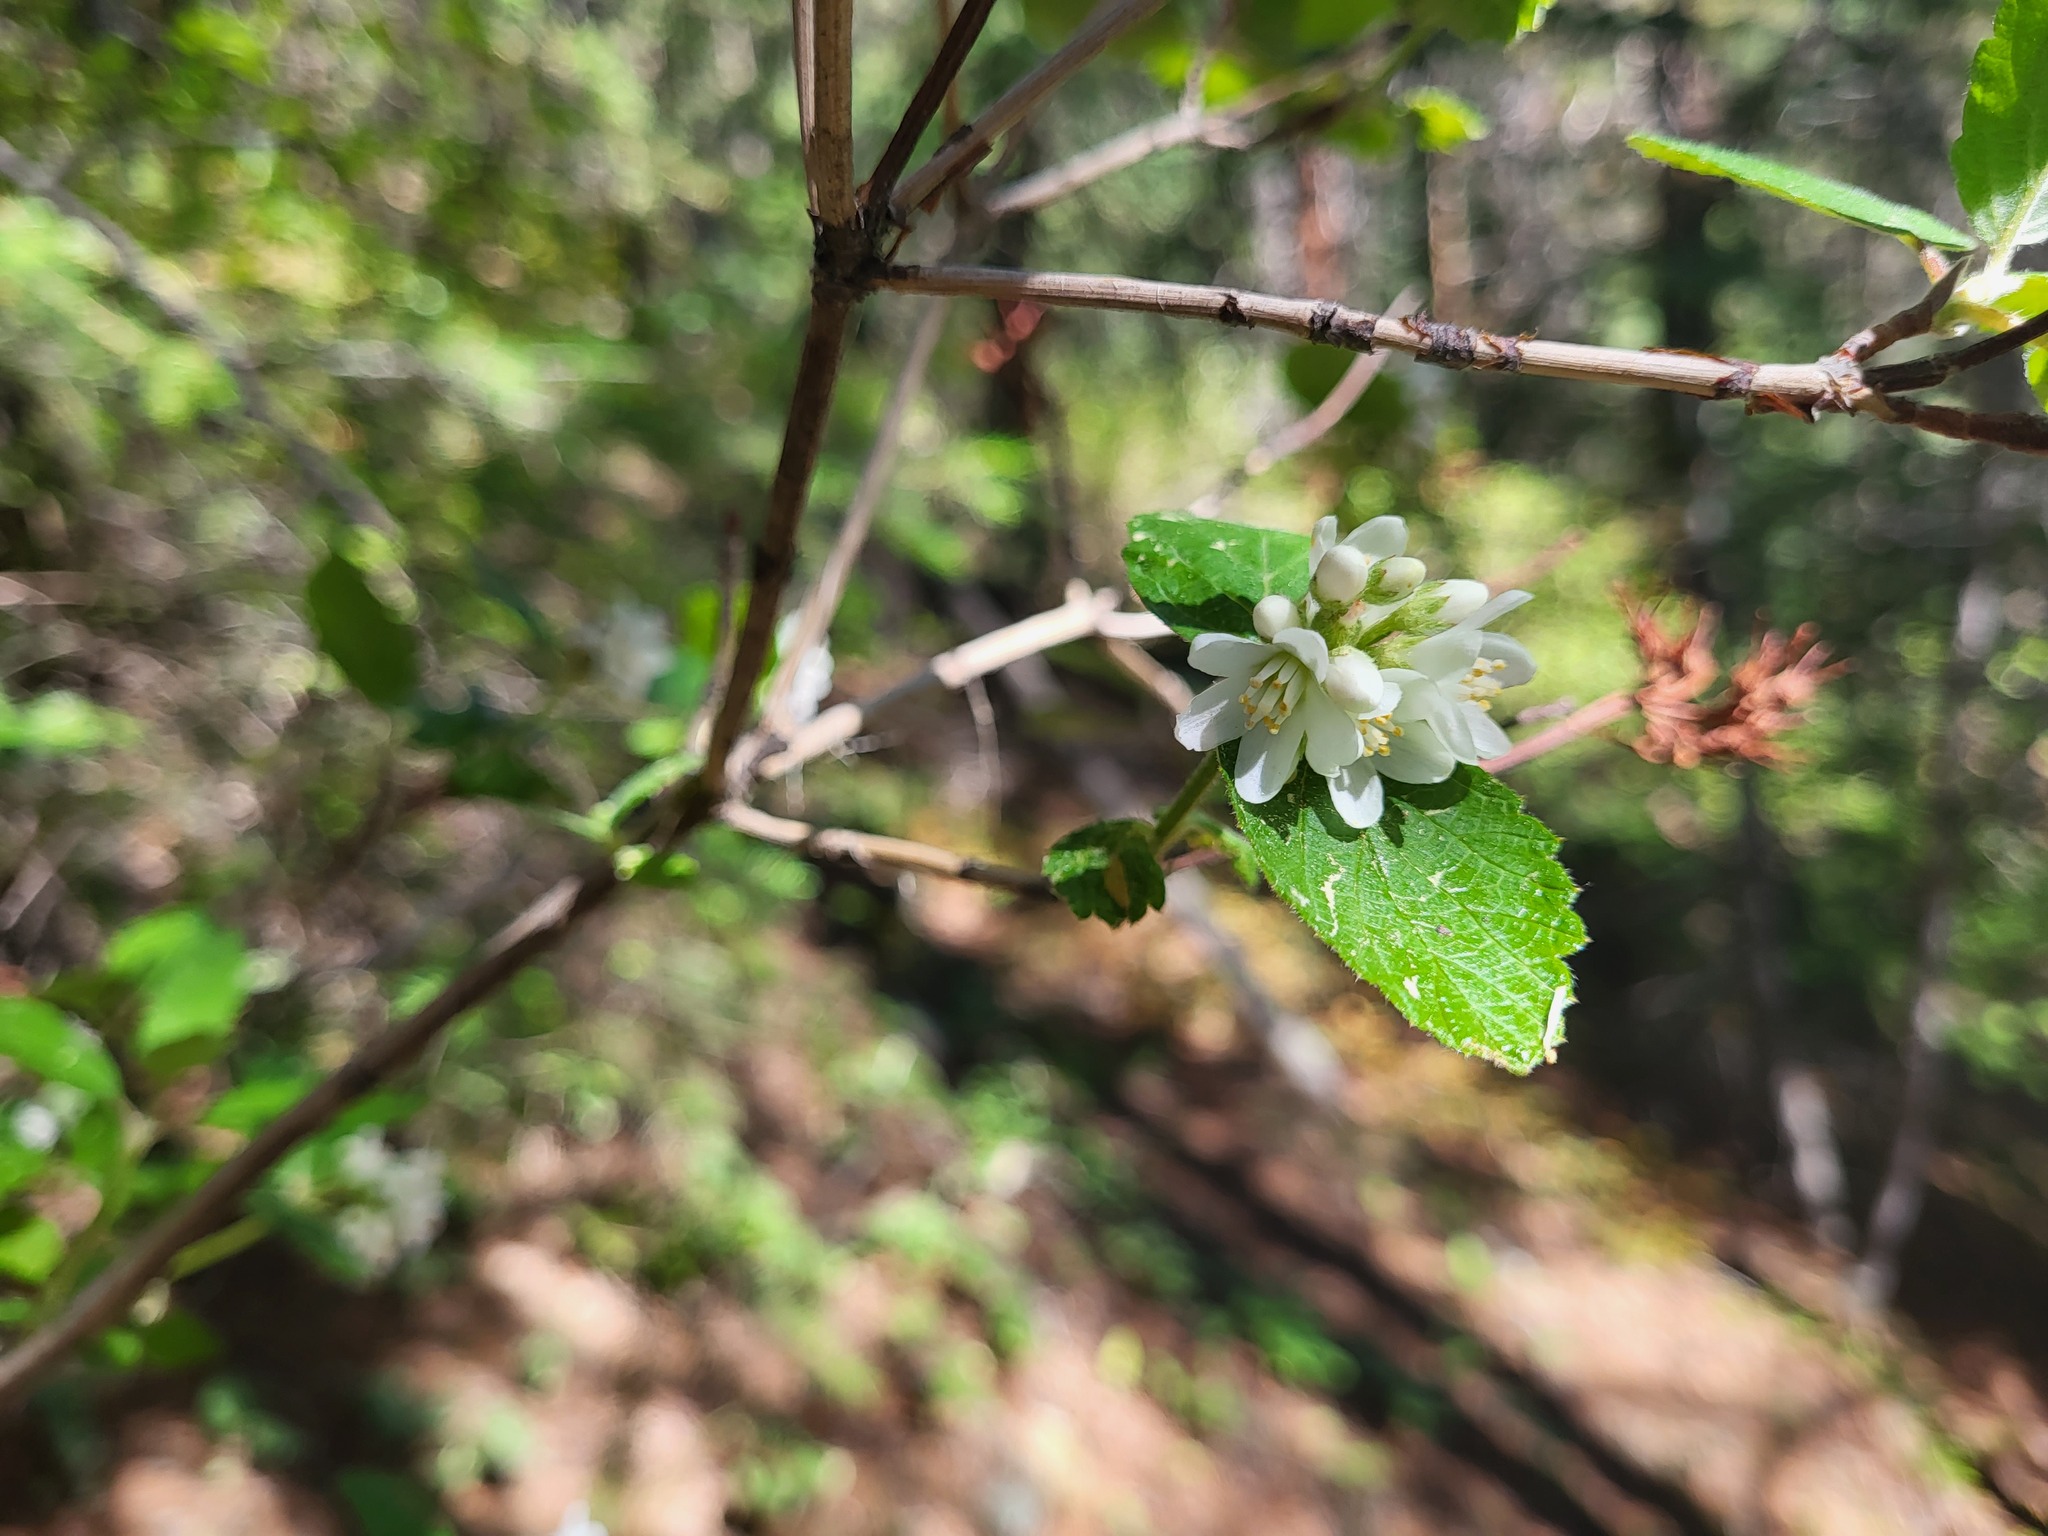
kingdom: Plantae
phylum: Tracheophyta
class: Magnoliopsida
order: Cornales
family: Hydrangeaceae
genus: Jamesia
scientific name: Jamesia americana
